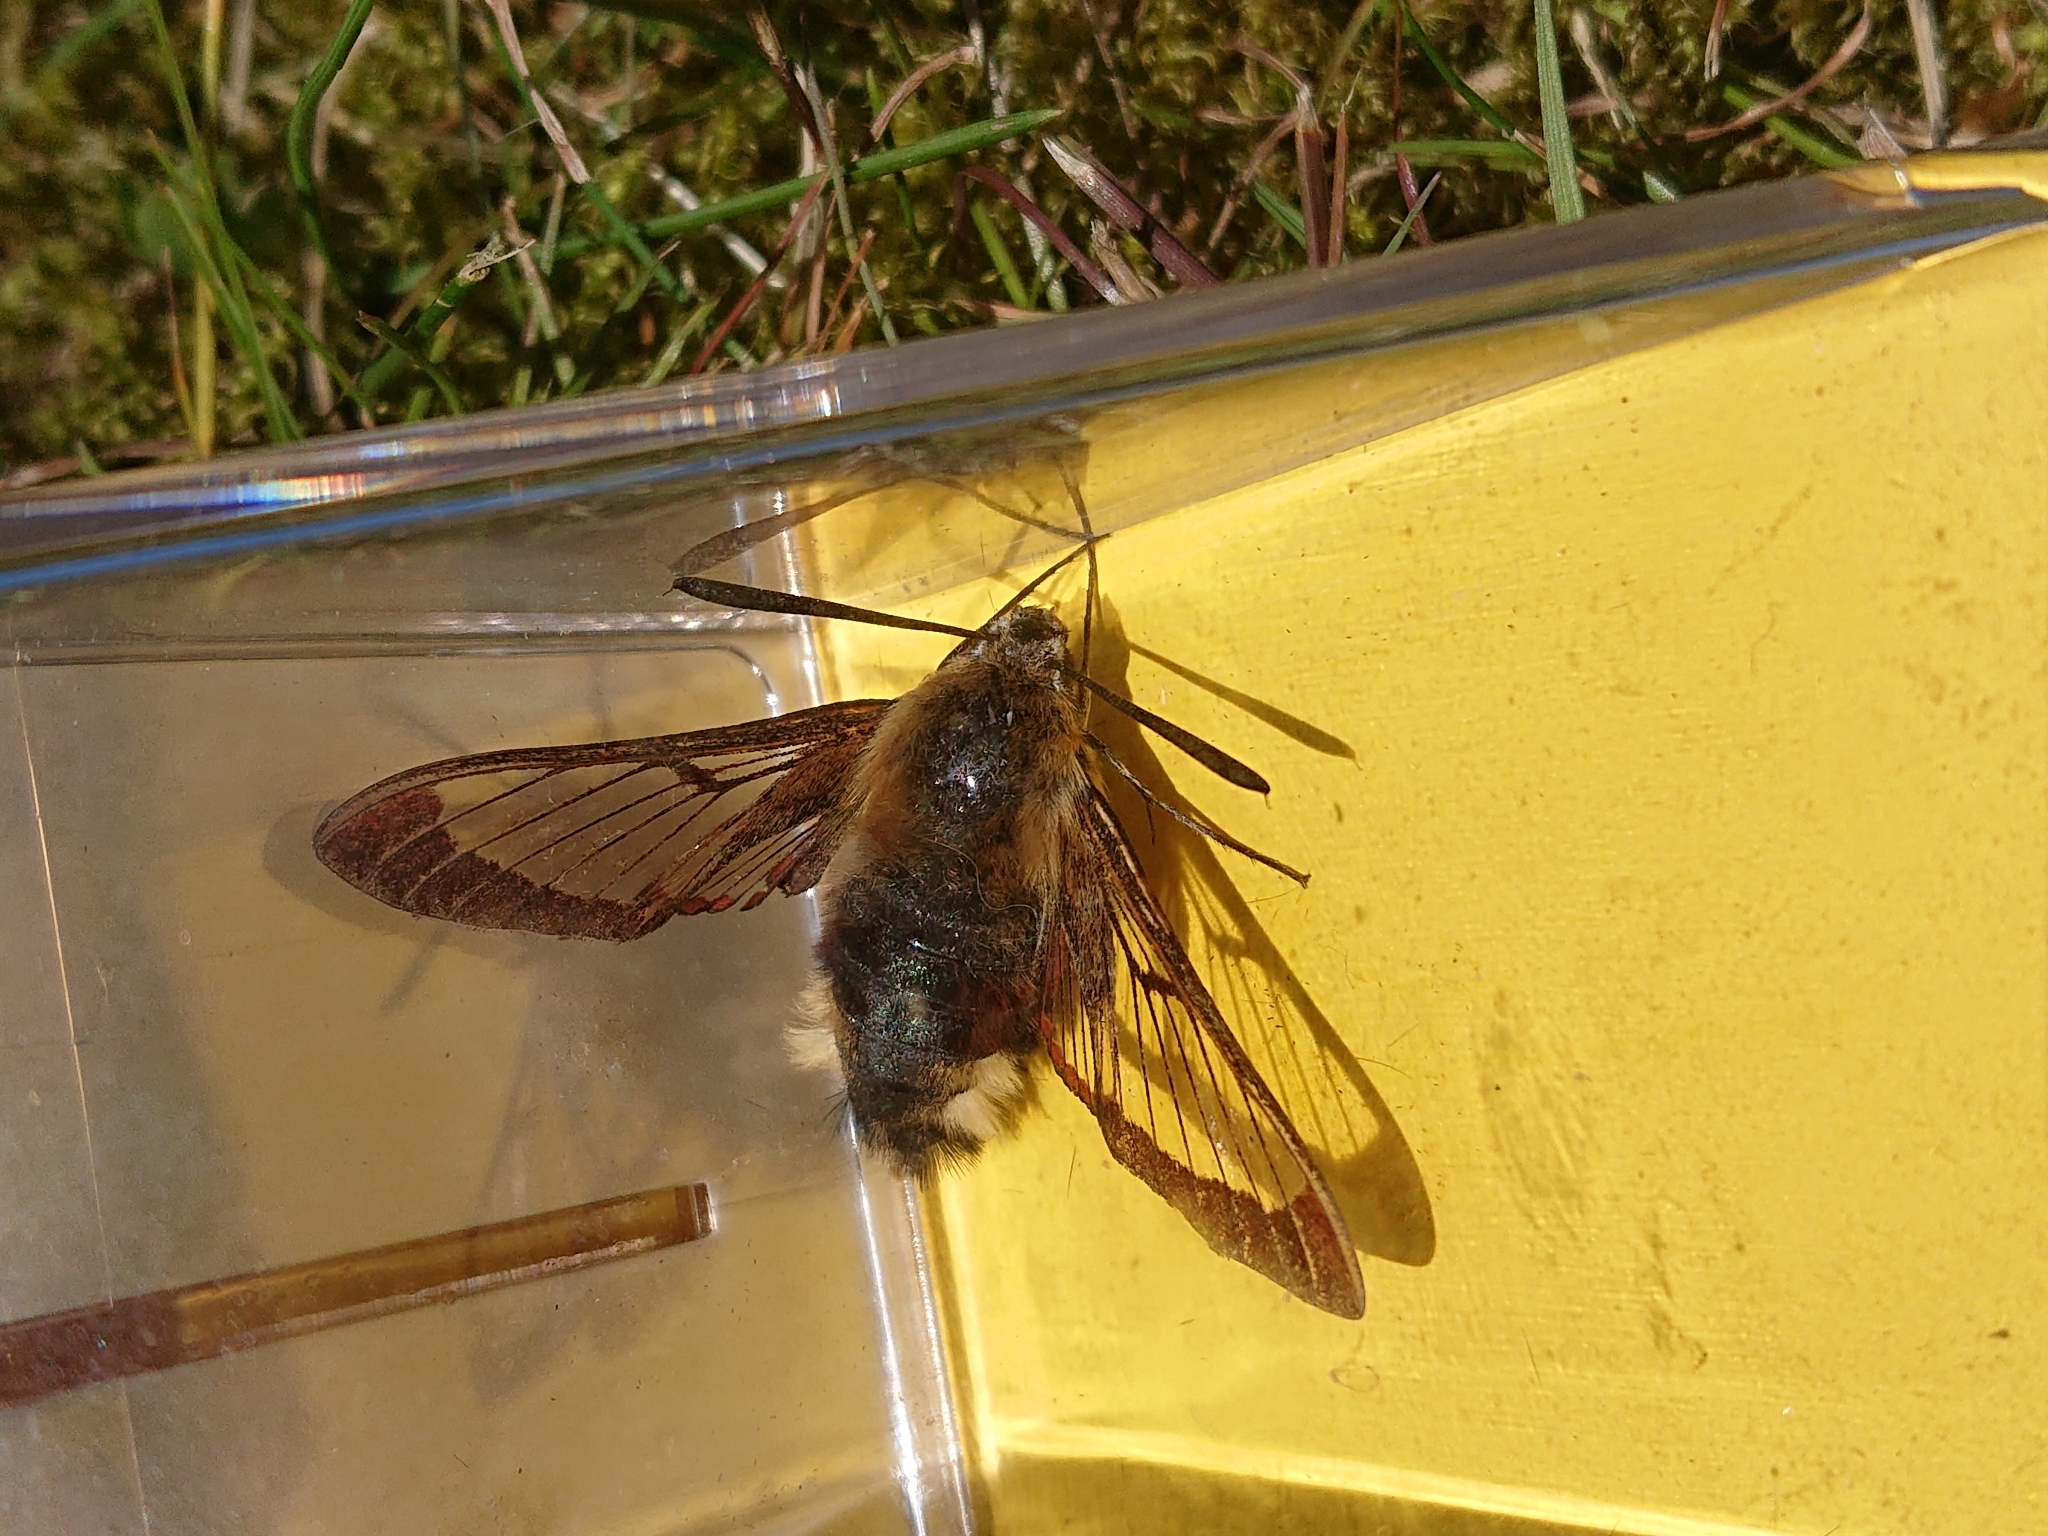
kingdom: Animalia
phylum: Arthropoda
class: Insecta
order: Lepidoptera
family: Sphingidae
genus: Hemaris
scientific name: Hemaris fuciformis
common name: Broad-bordered bee hawk-moth
